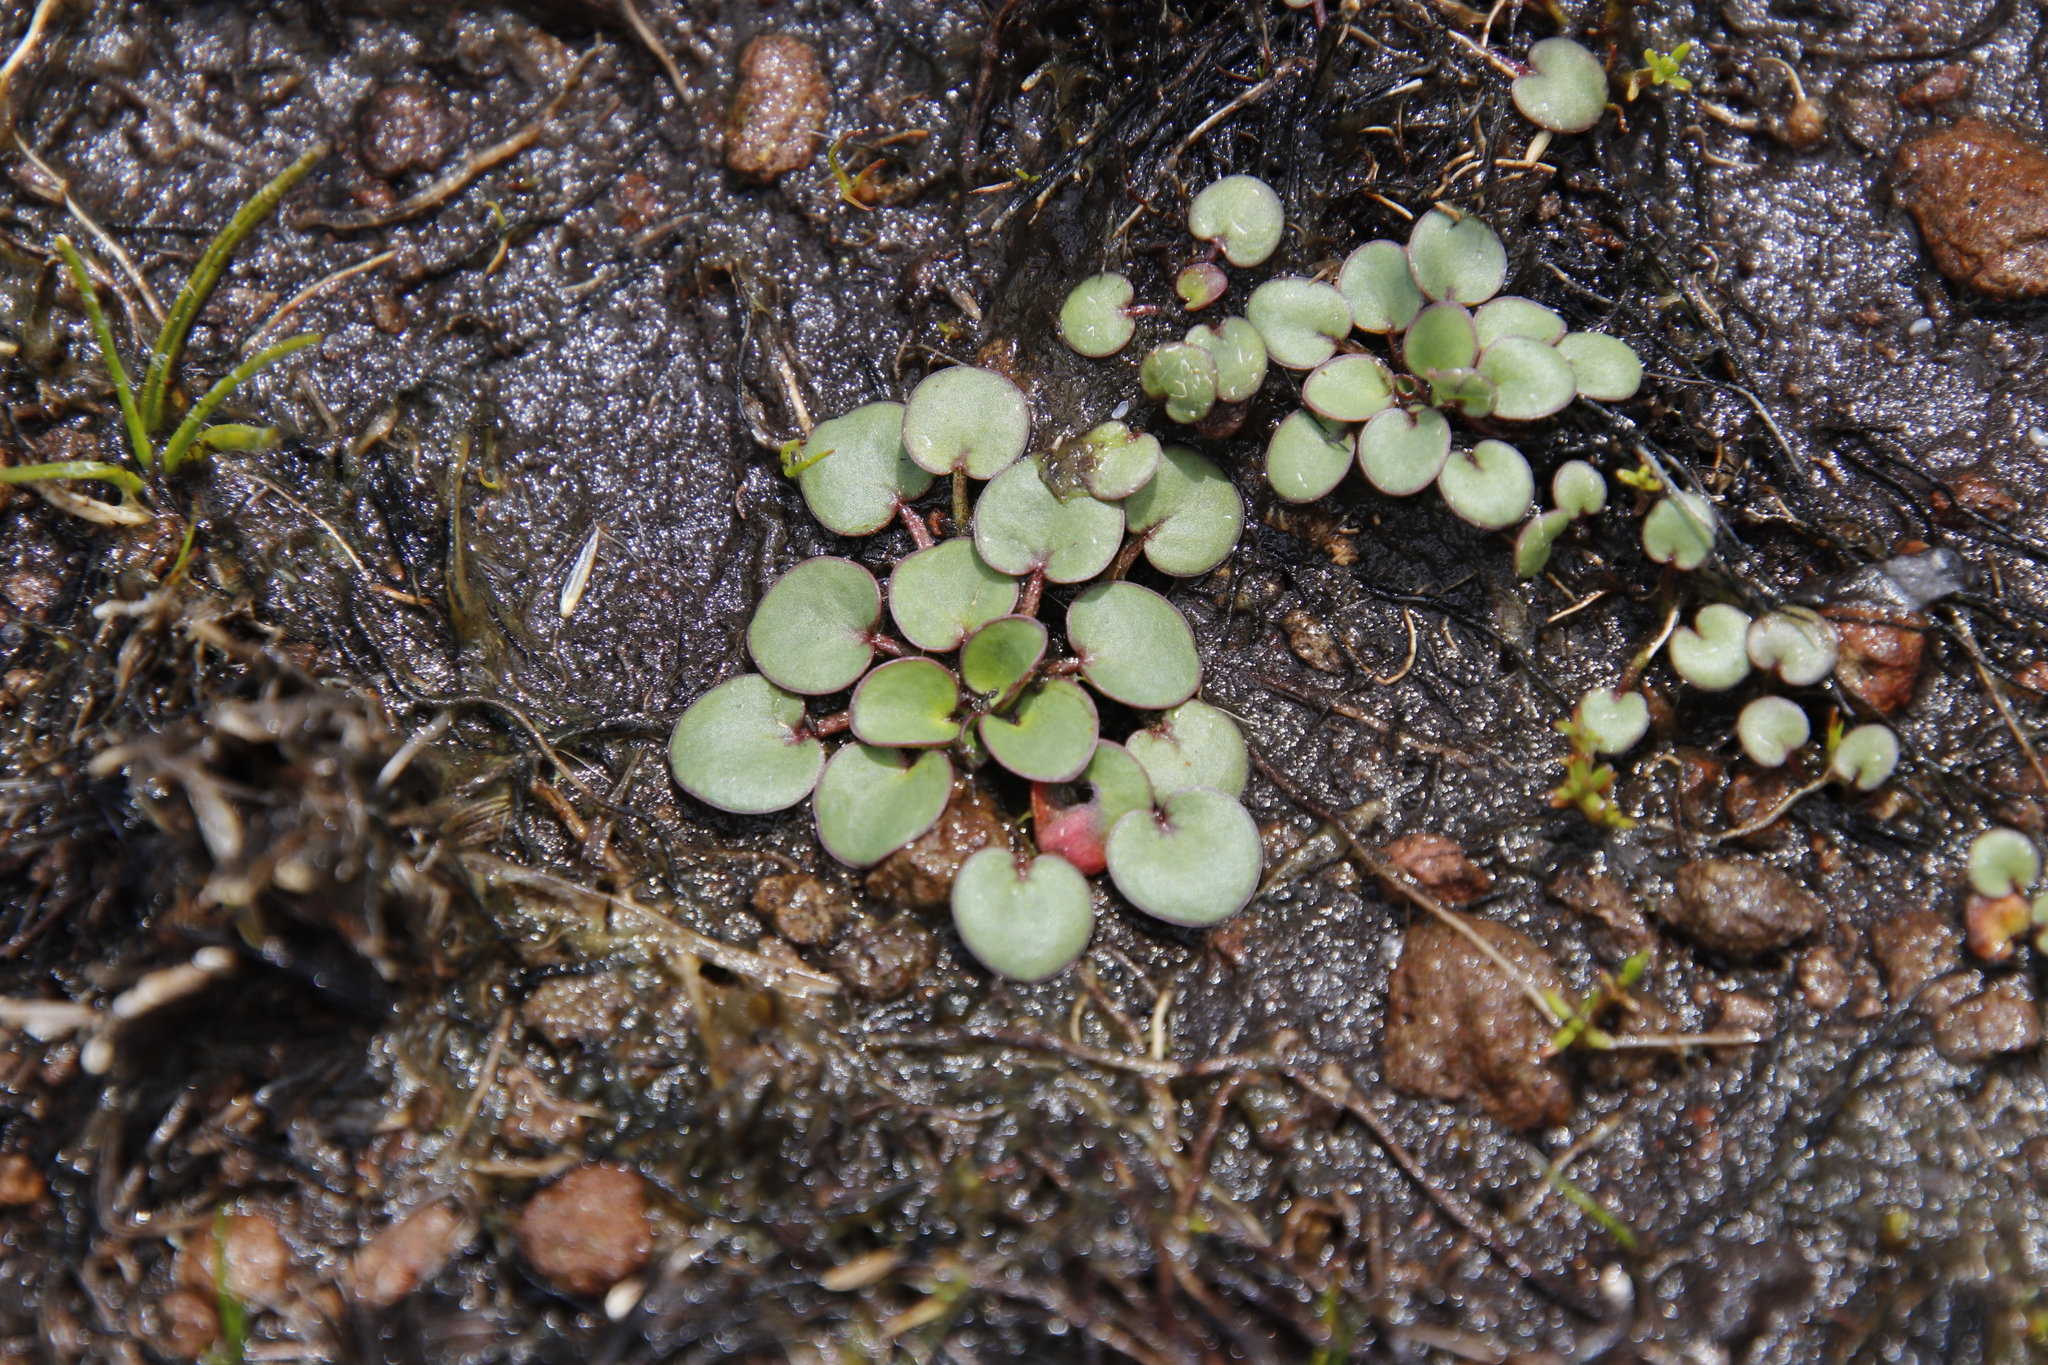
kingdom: Plantae
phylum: Tracheophyta
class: Magnoliopsida
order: Lamiales
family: Scrophulariaceae
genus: Limosella
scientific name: Limosella vesiculosa
